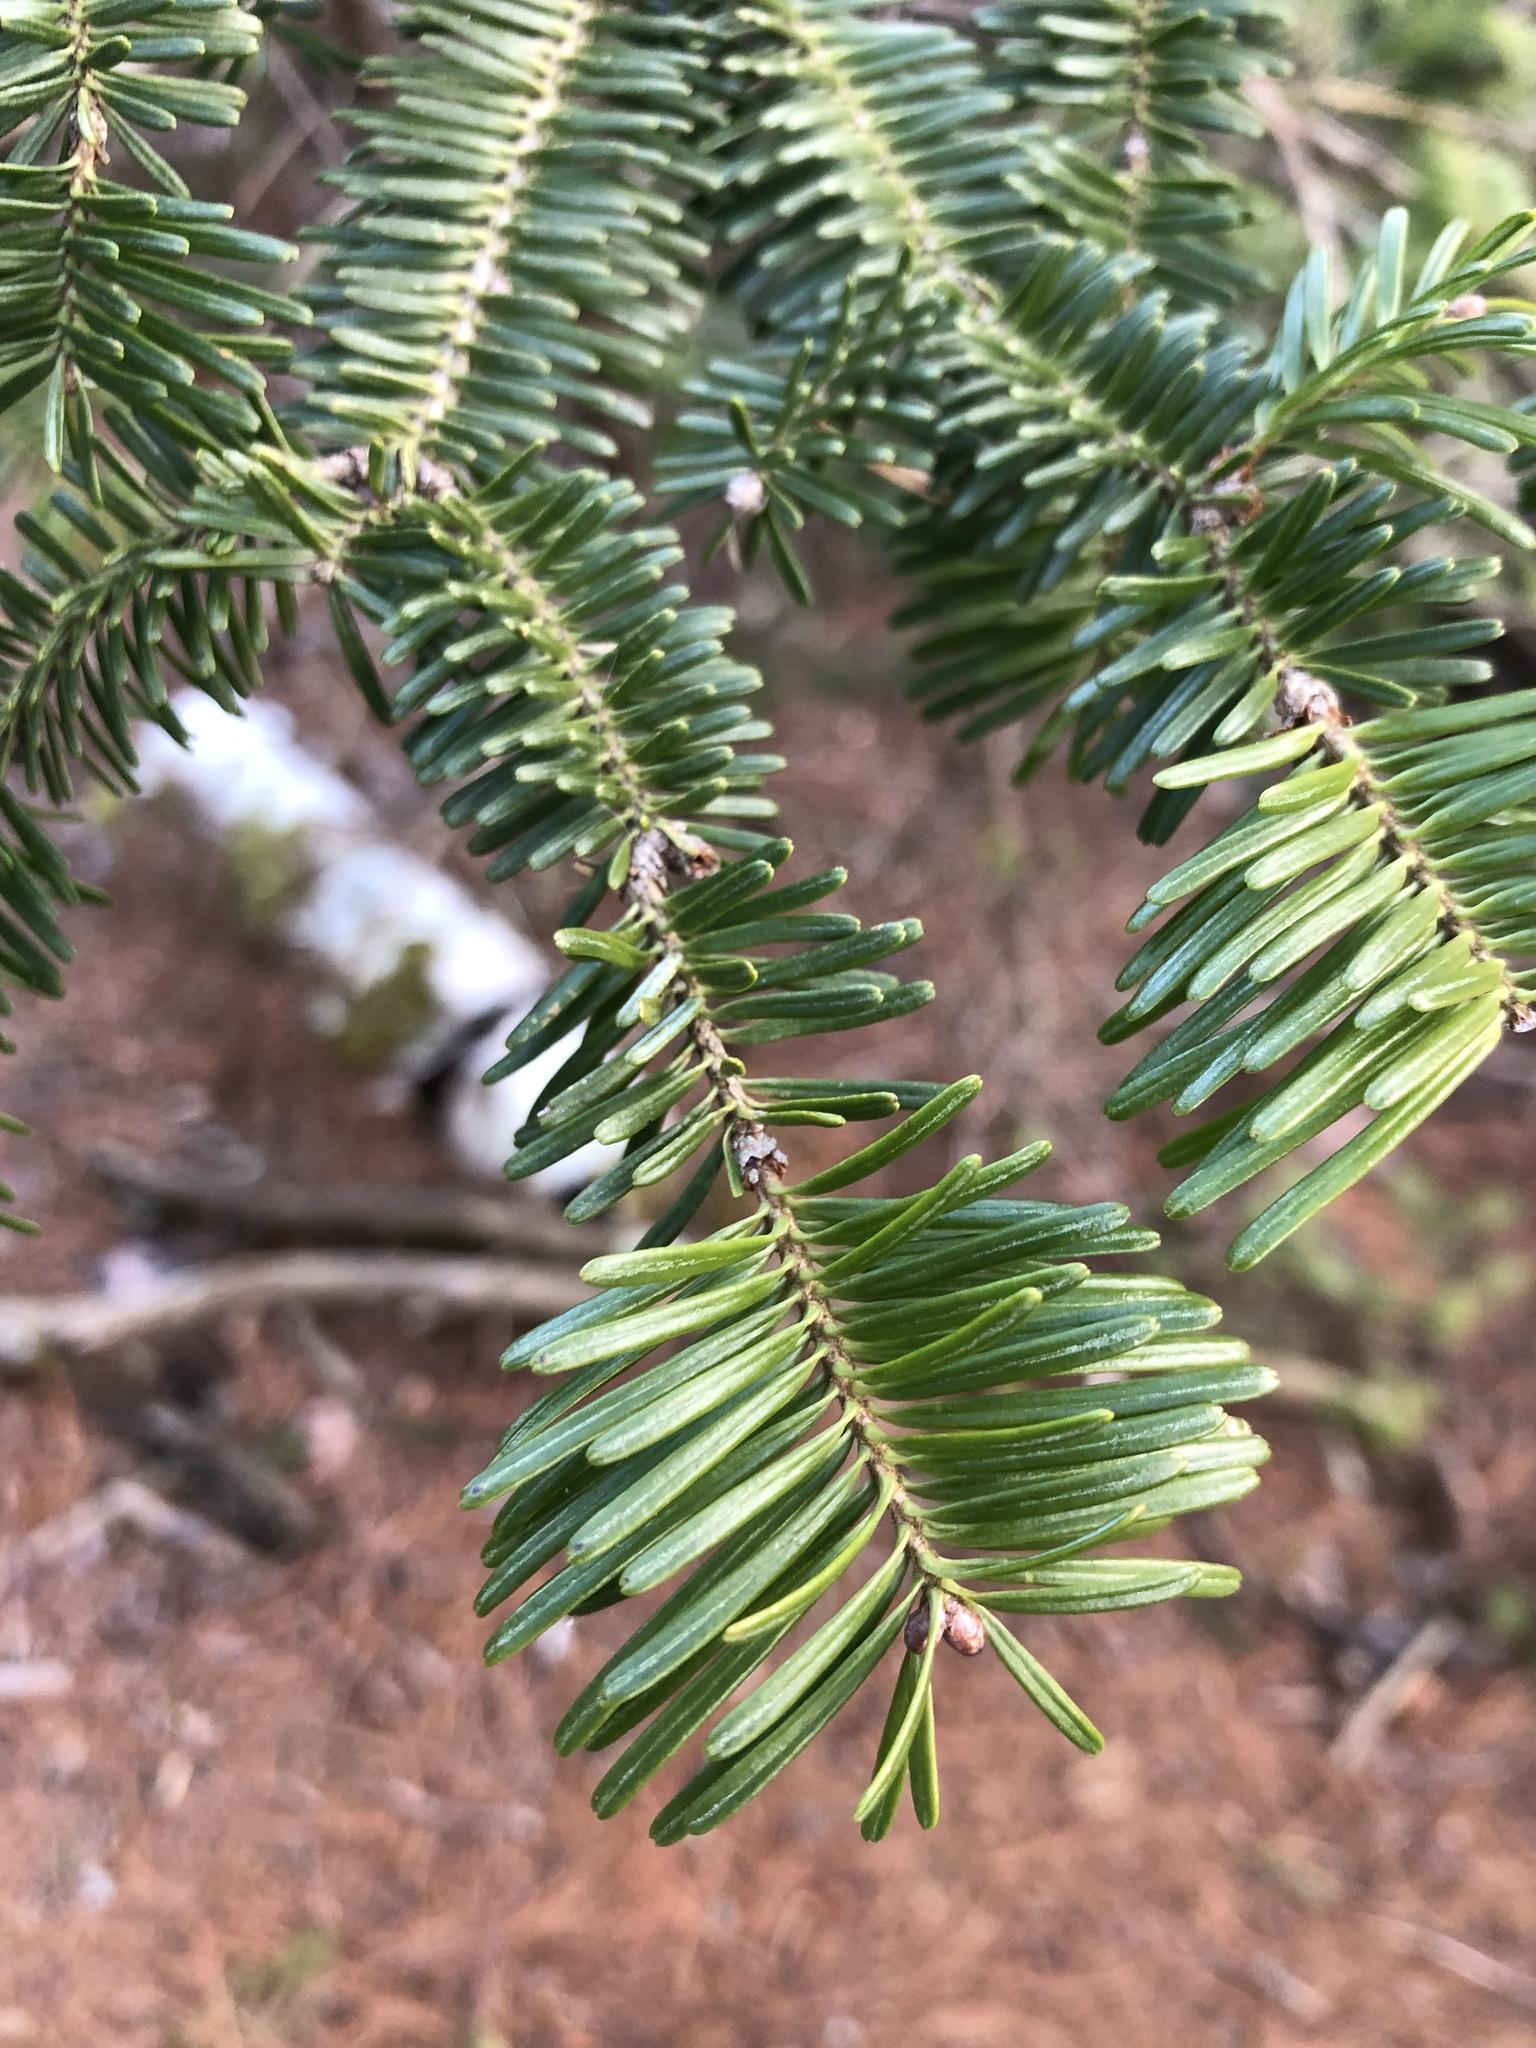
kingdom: Plantae
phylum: Tracheophyta
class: Pinopsida
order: Pinales
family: Pinaceae
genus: Abies
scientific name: Abies balsamea
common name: Balsam fir
